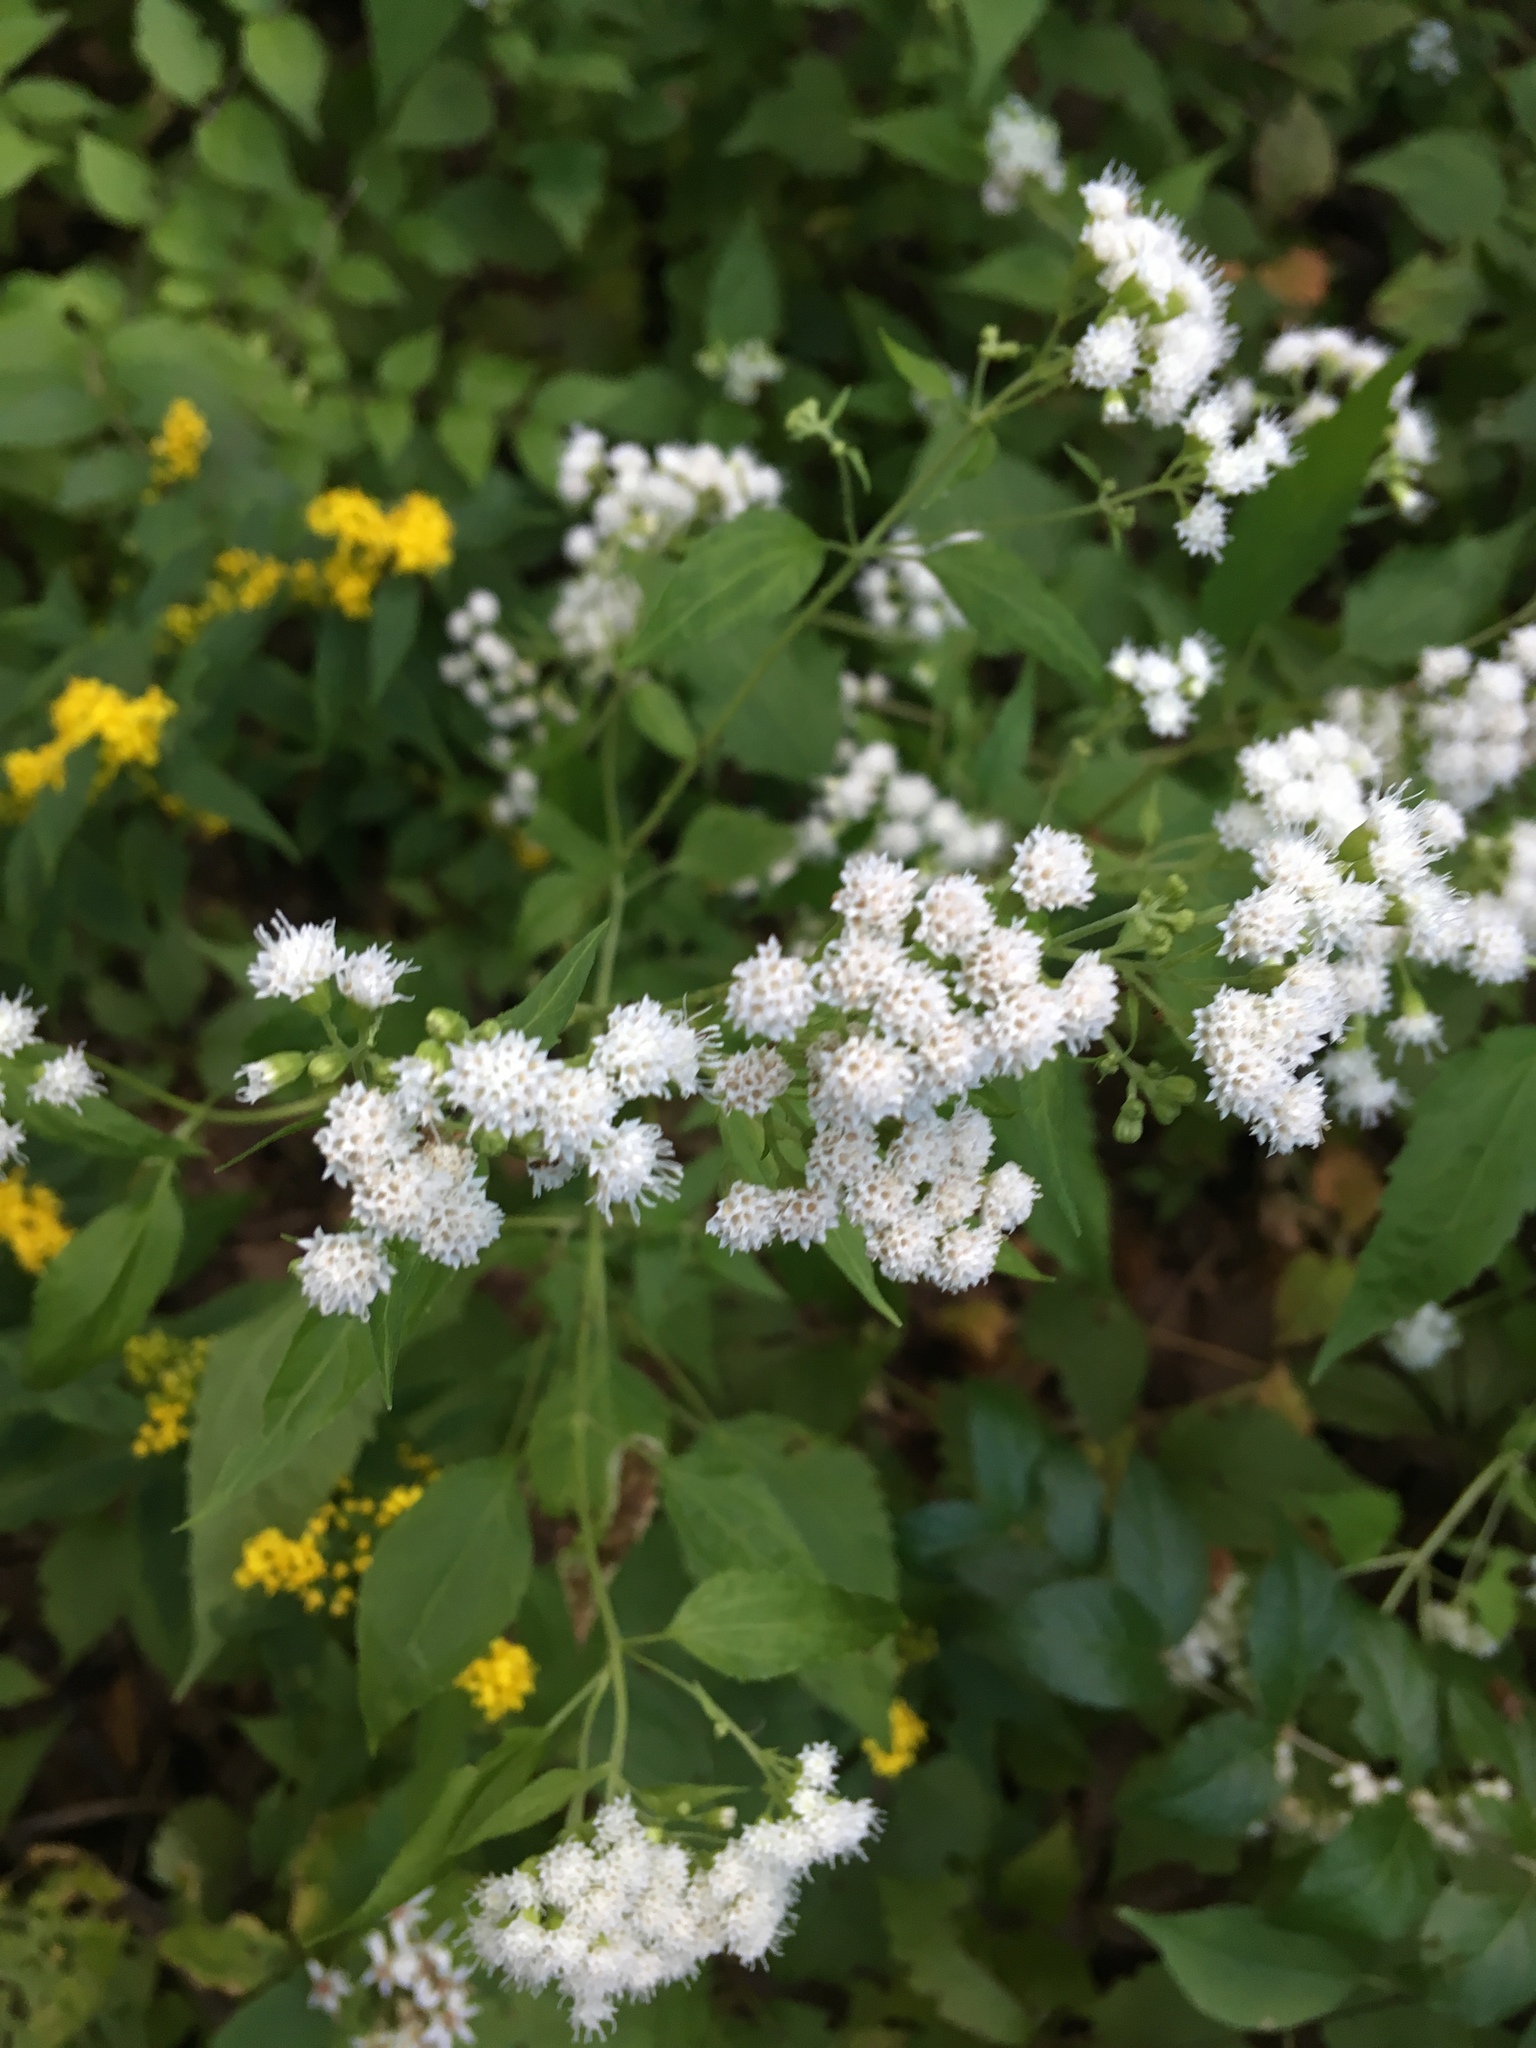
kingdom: Plantae
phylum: Tracheophyta
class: Magnoliopsida
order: Asterales
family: Asteraceae
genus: Ageratina
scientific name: Ageratina altissima
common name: White snakeroot
